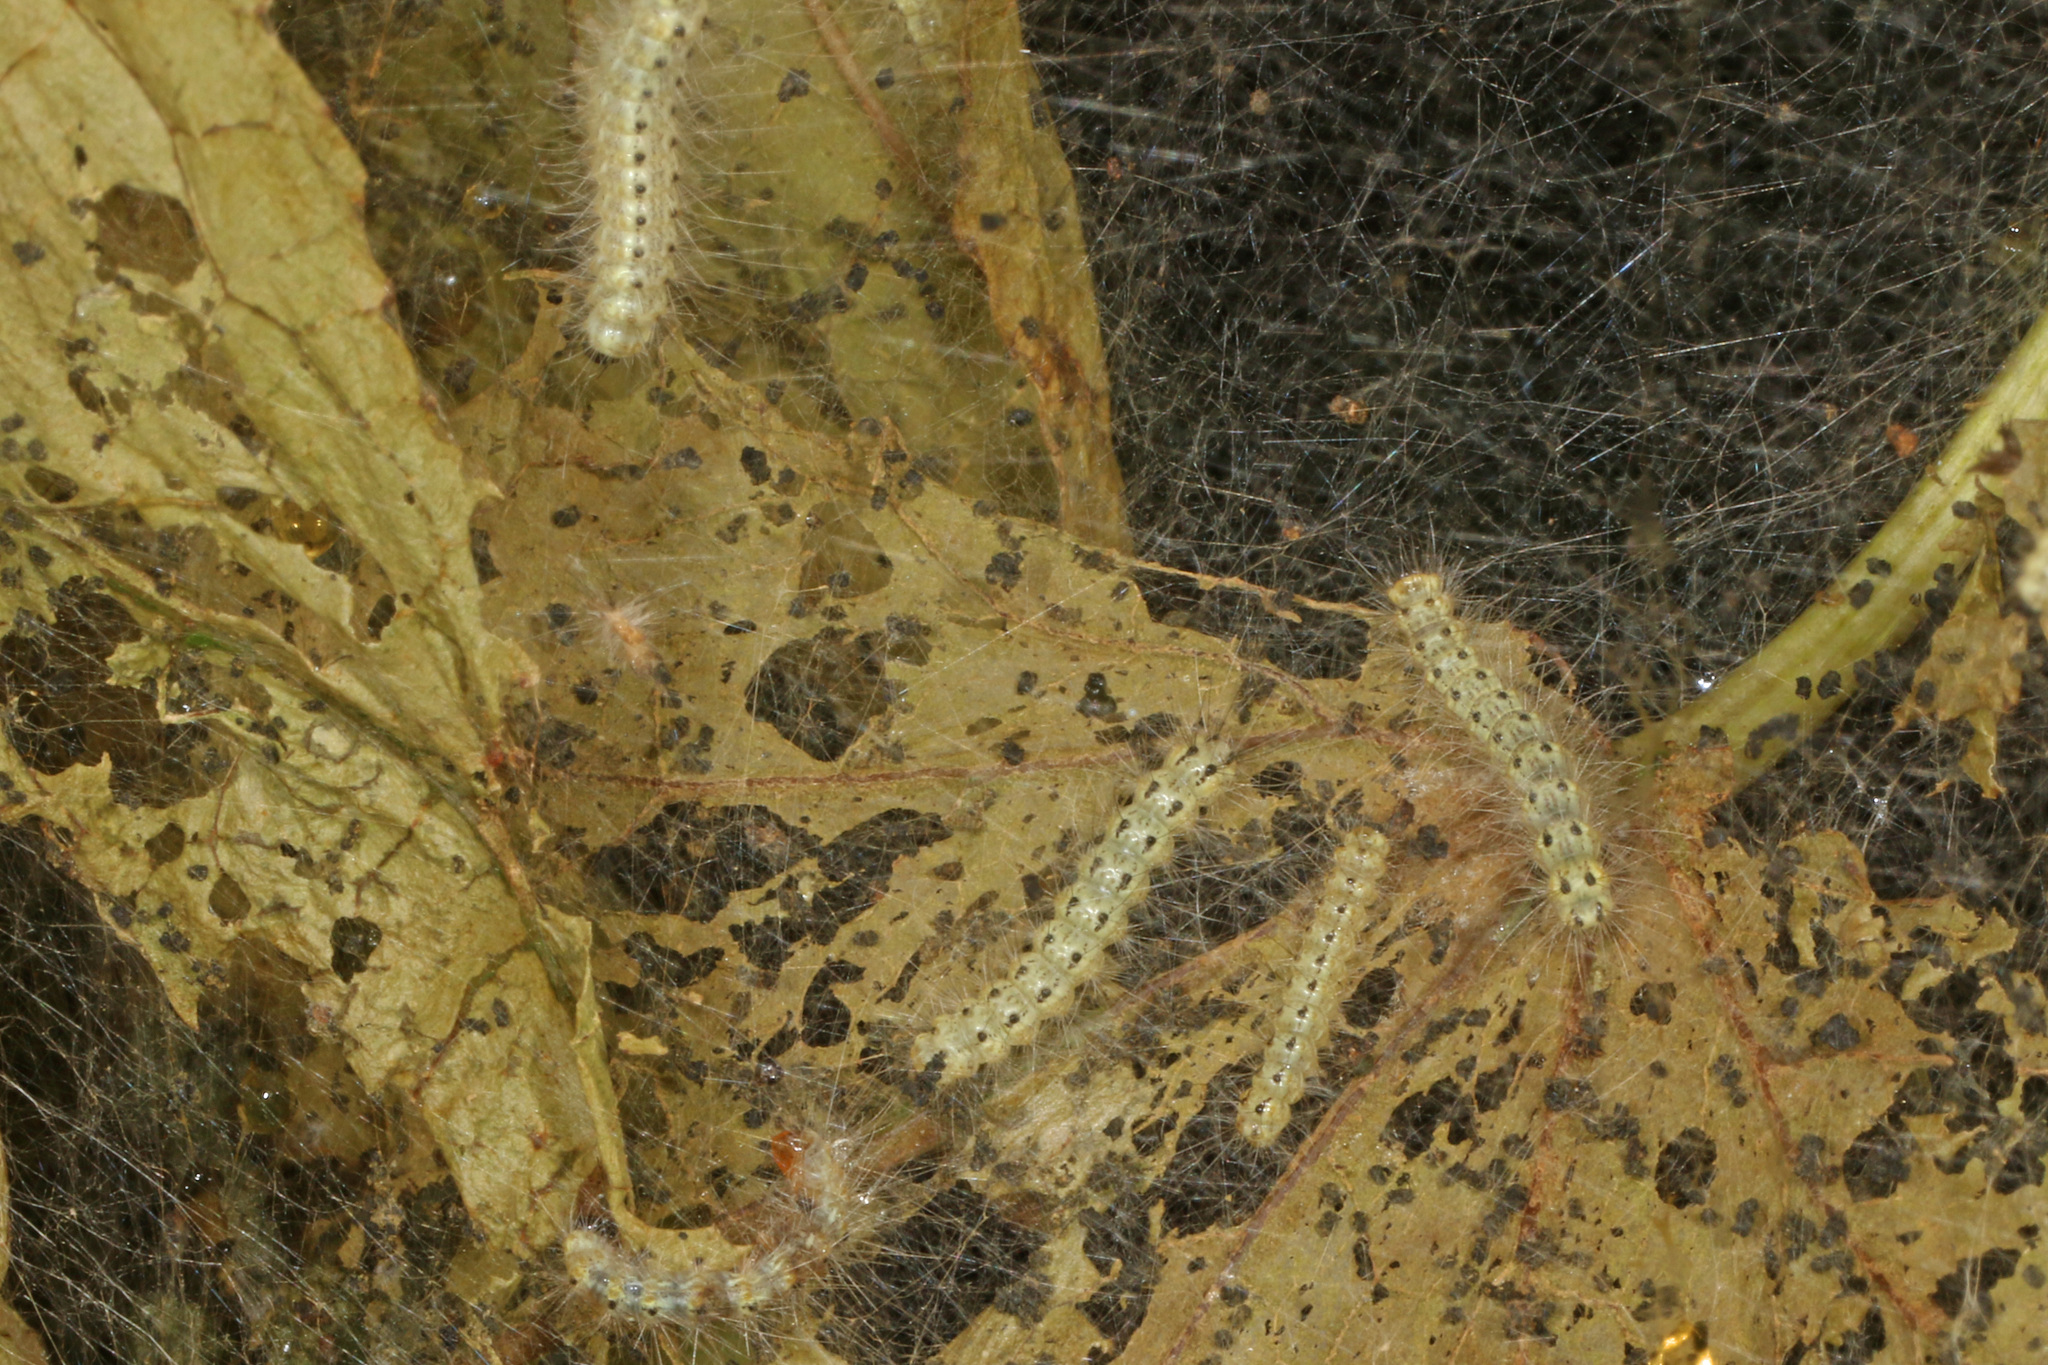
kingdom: Animalia
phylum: Arthropoda
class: Insecta
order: Lepidoptera
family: Erebidae
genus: Hyphantria
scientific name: Hyphantria cunea
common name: American white moth
